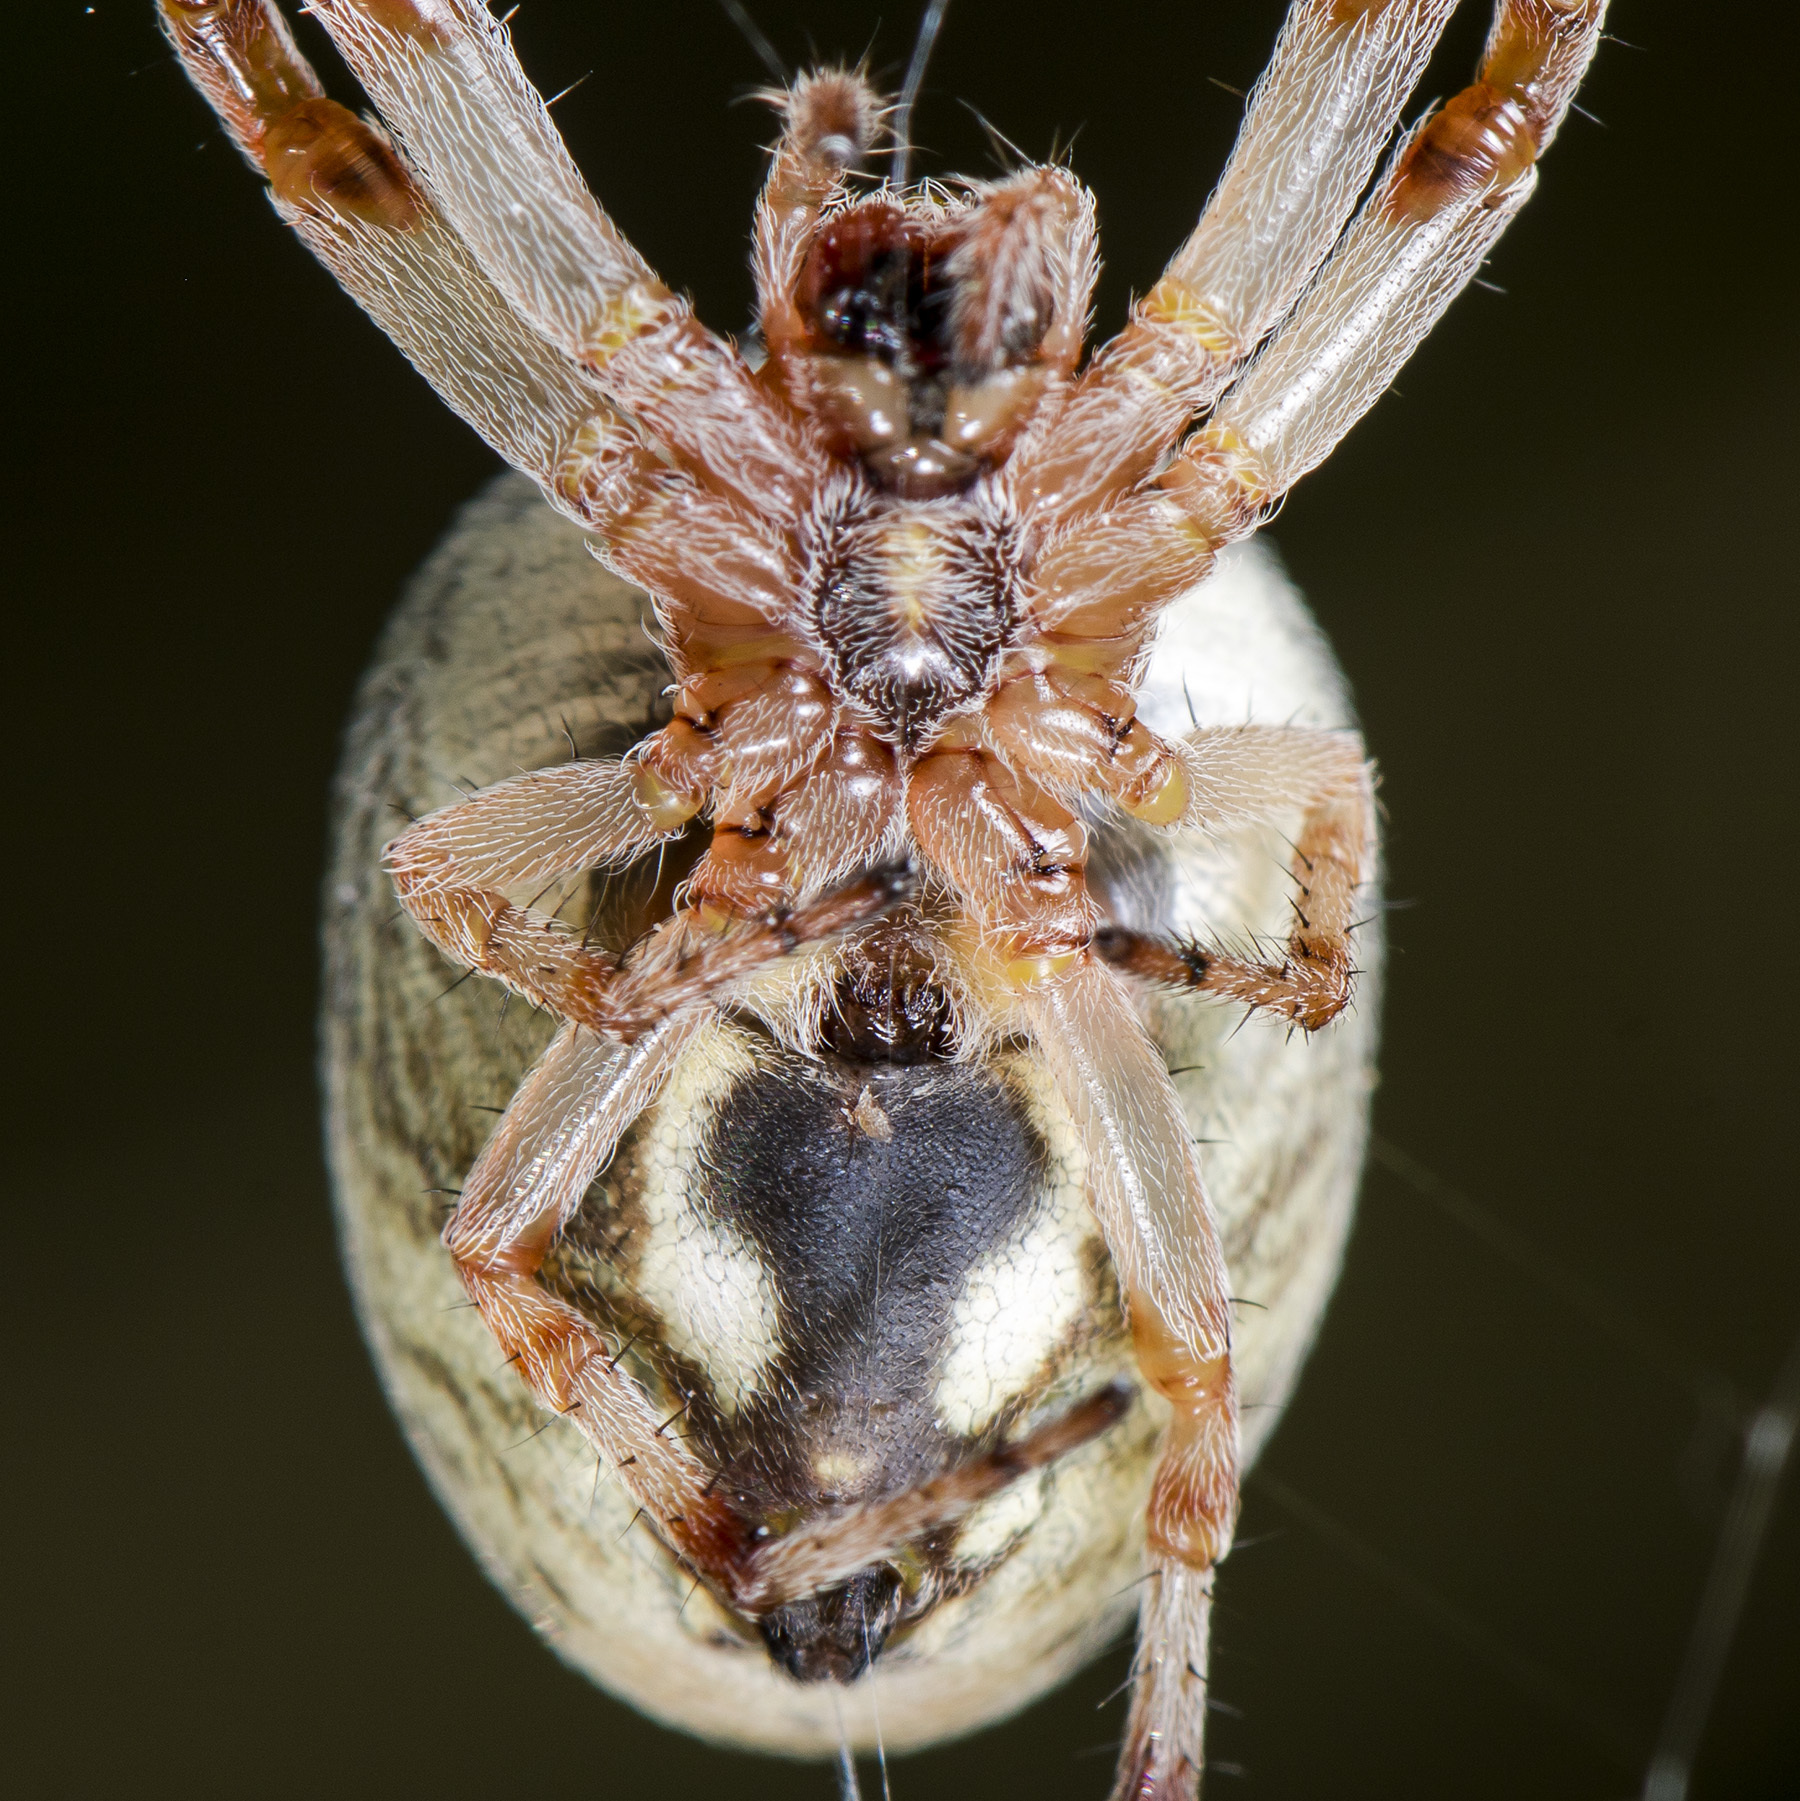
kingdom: Animalia
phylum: Arthropoda
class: Arachnida
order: Araneae
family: Araneidae
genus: Larinioides
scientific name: Larinioides suspicax
